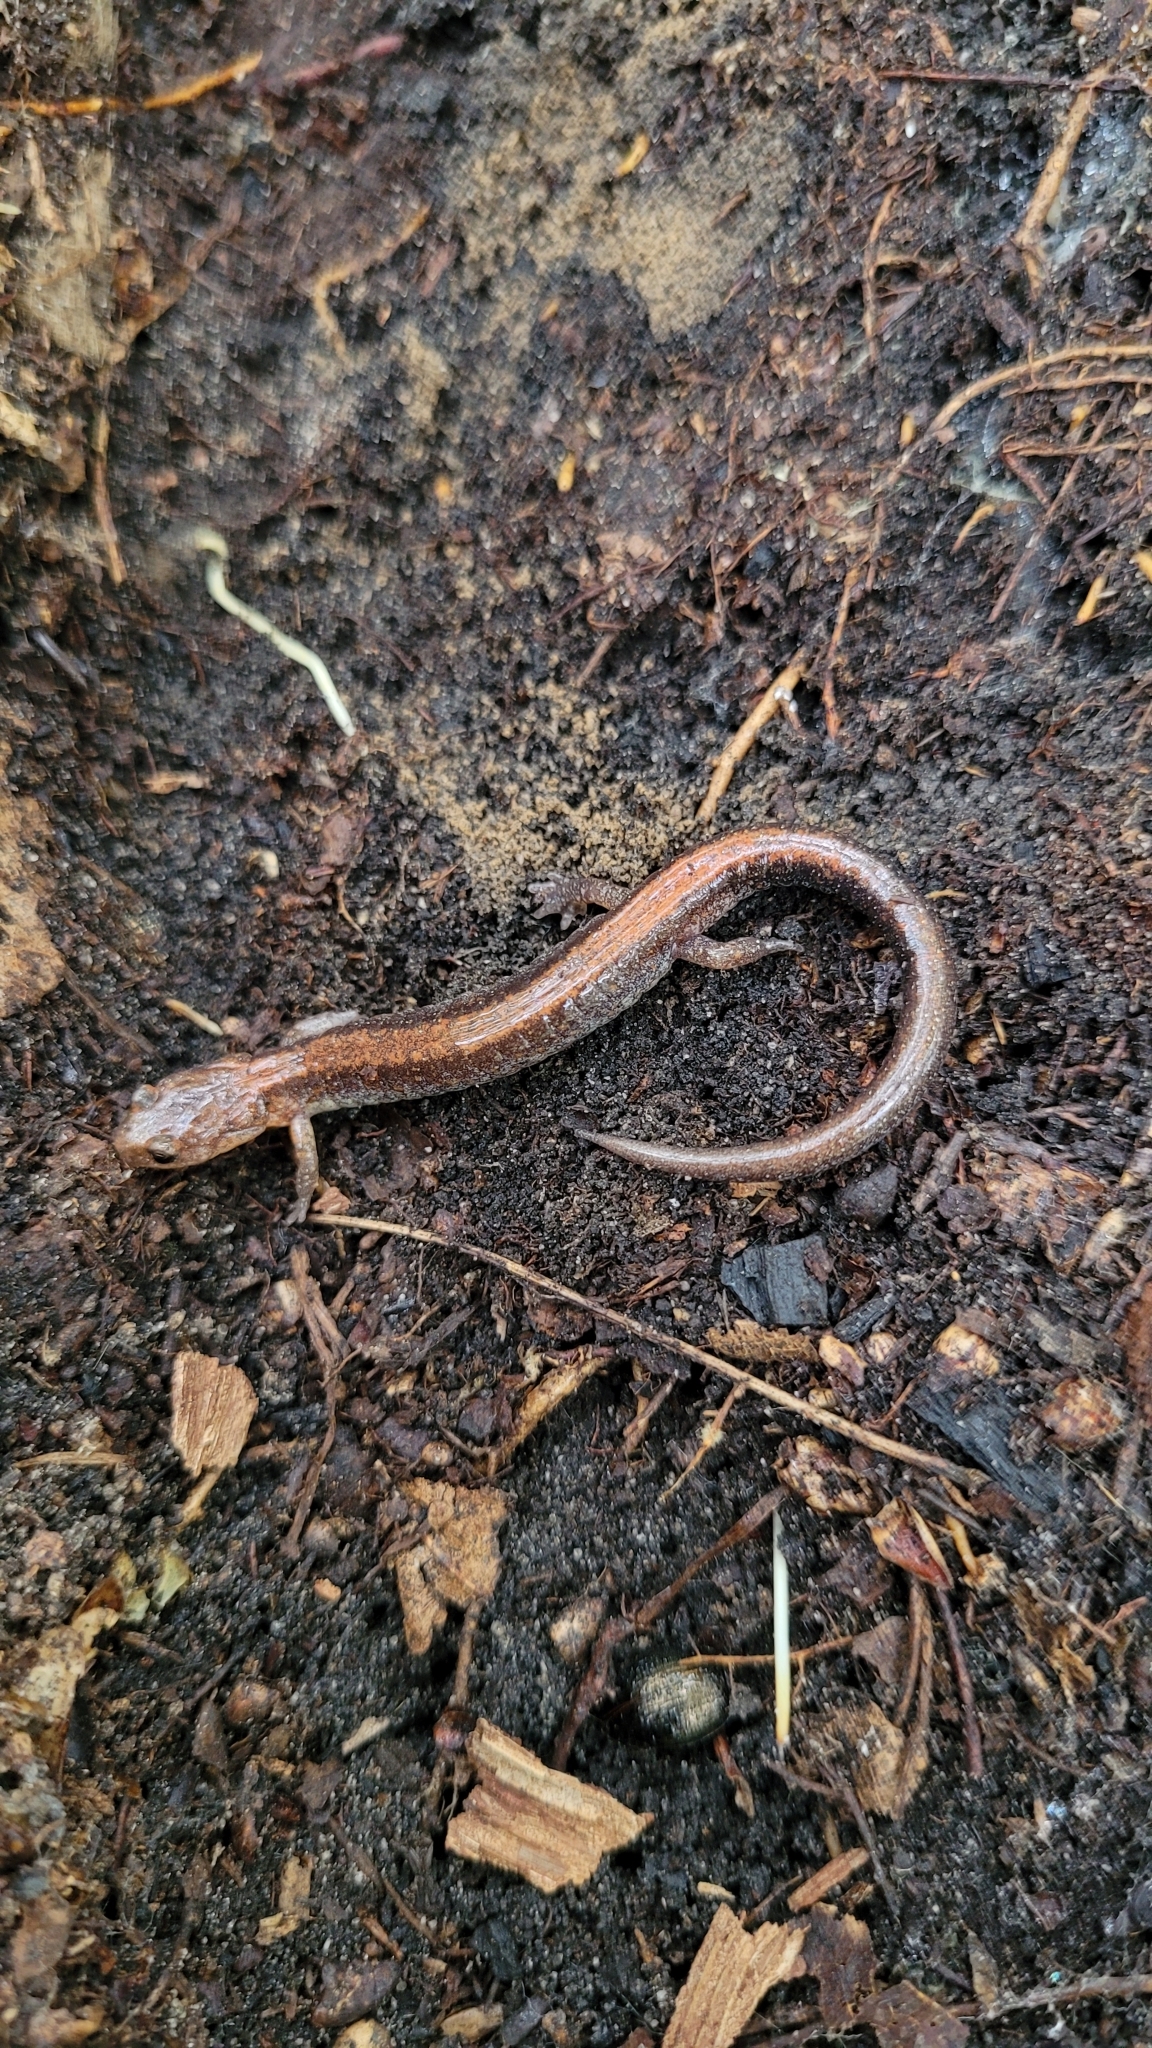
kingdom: Animalia
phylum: Chordata
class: Amphibia
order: Caudata
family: Plethodontidae
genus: Plethodon
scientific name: Plethodon cinereus
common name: Redback salamander
